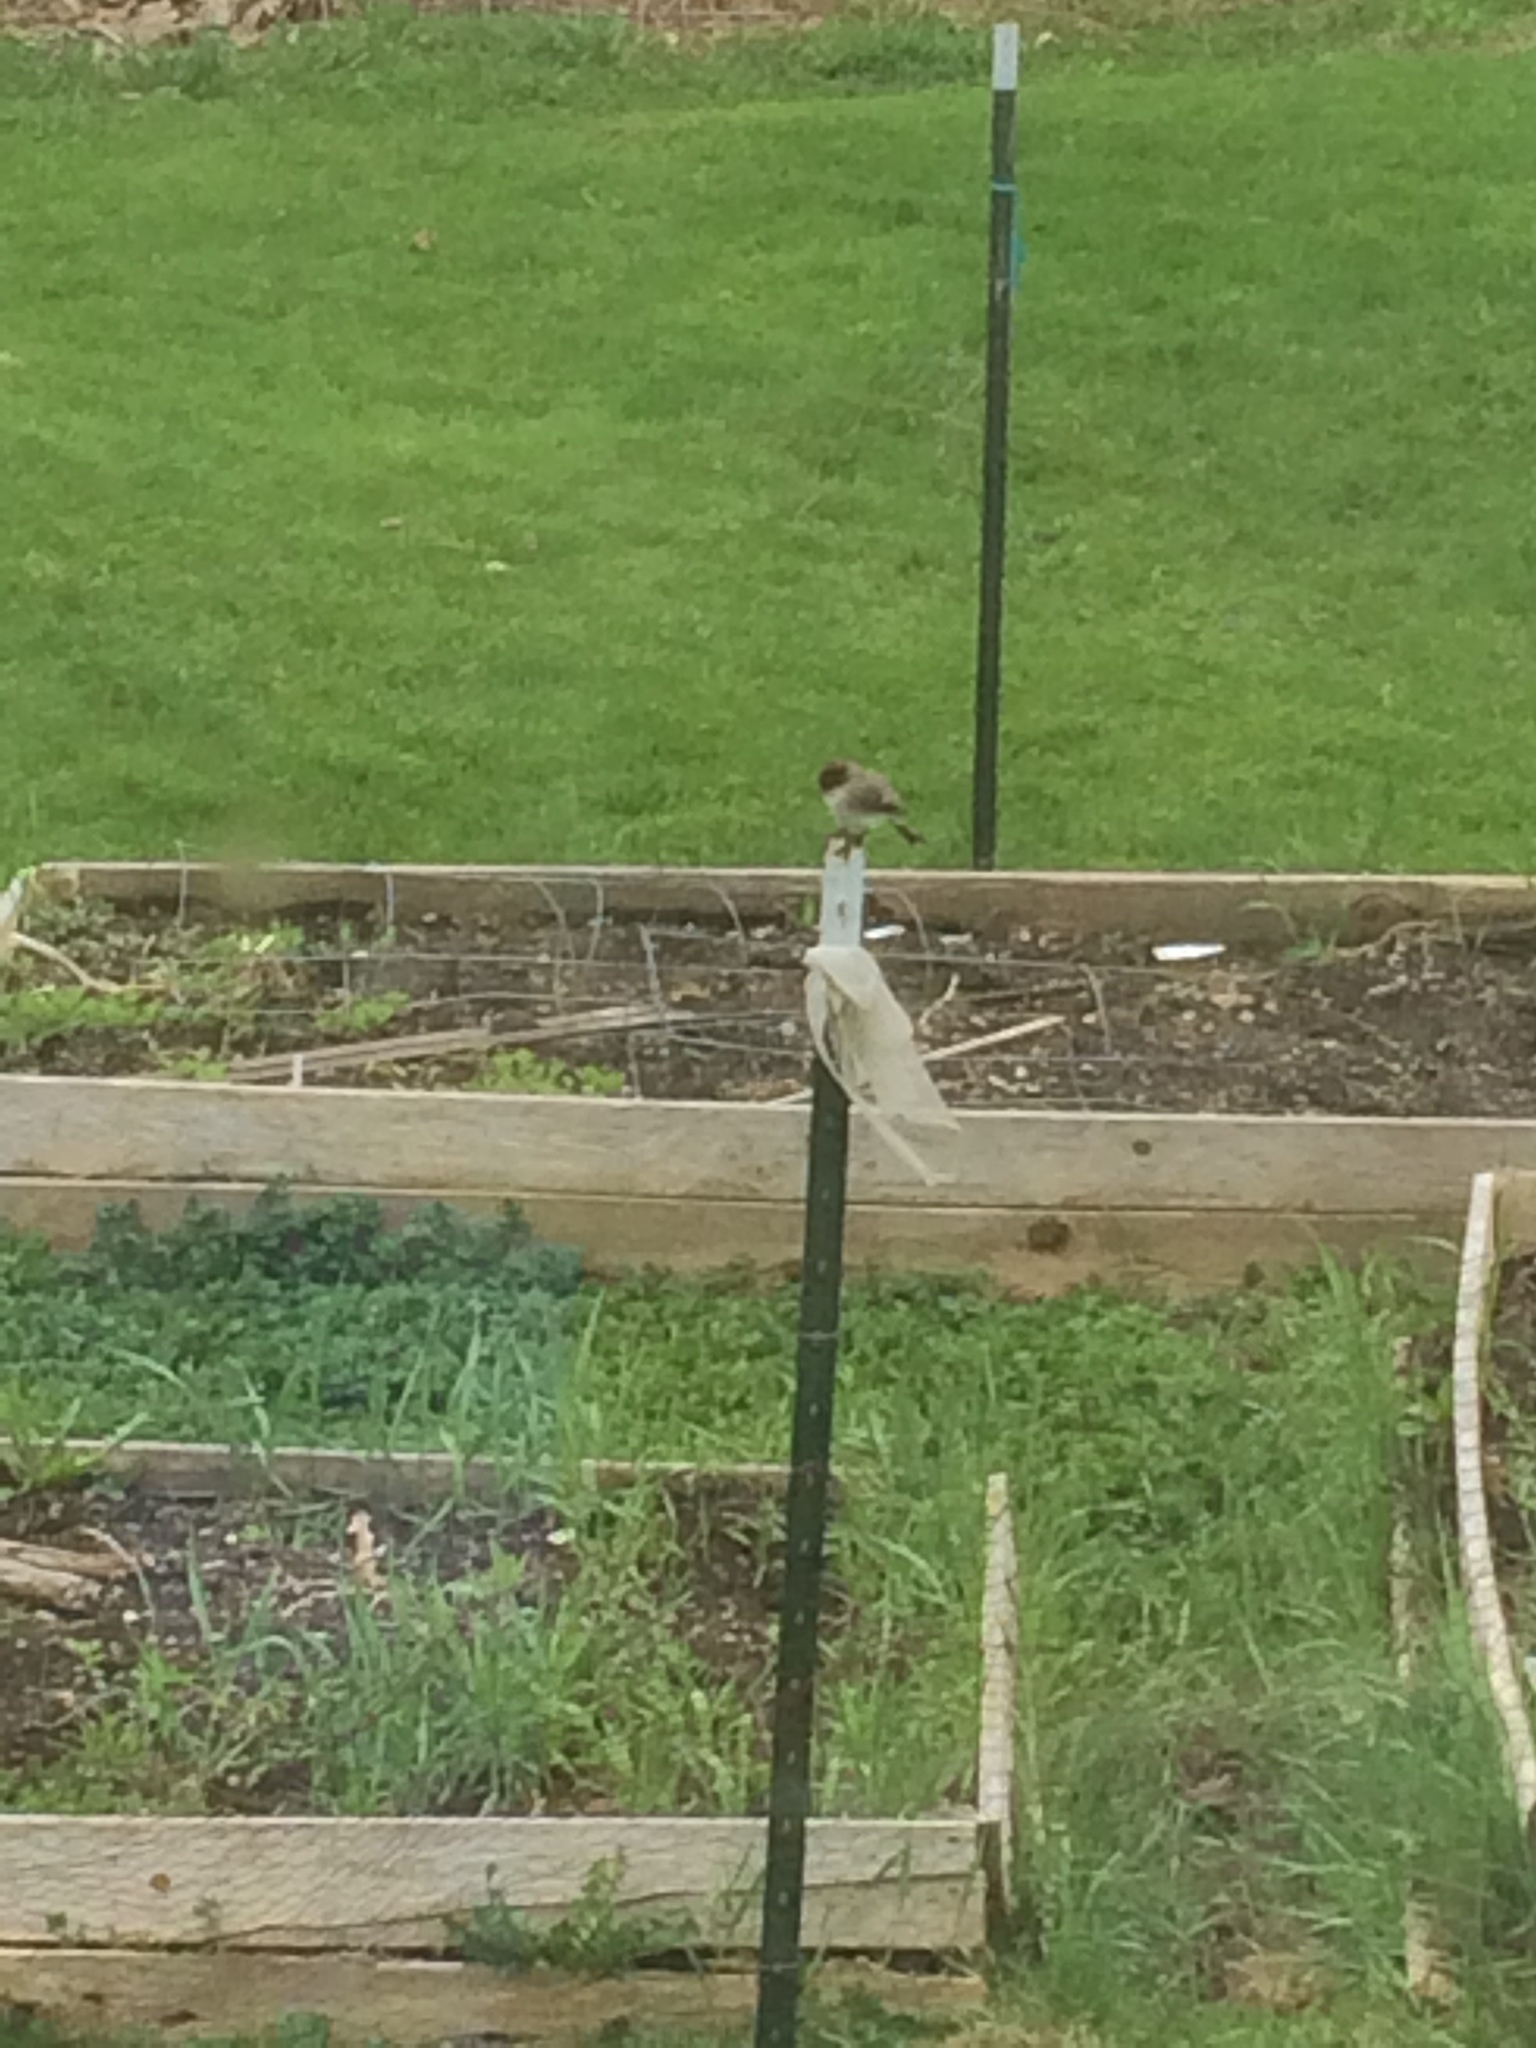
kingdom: Animalia
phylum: Chordata
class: Aves
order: Passeriformes
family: Tyrannidae
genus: Sayornis
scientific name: Sayornis phoebe
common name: Eastern phoebe
